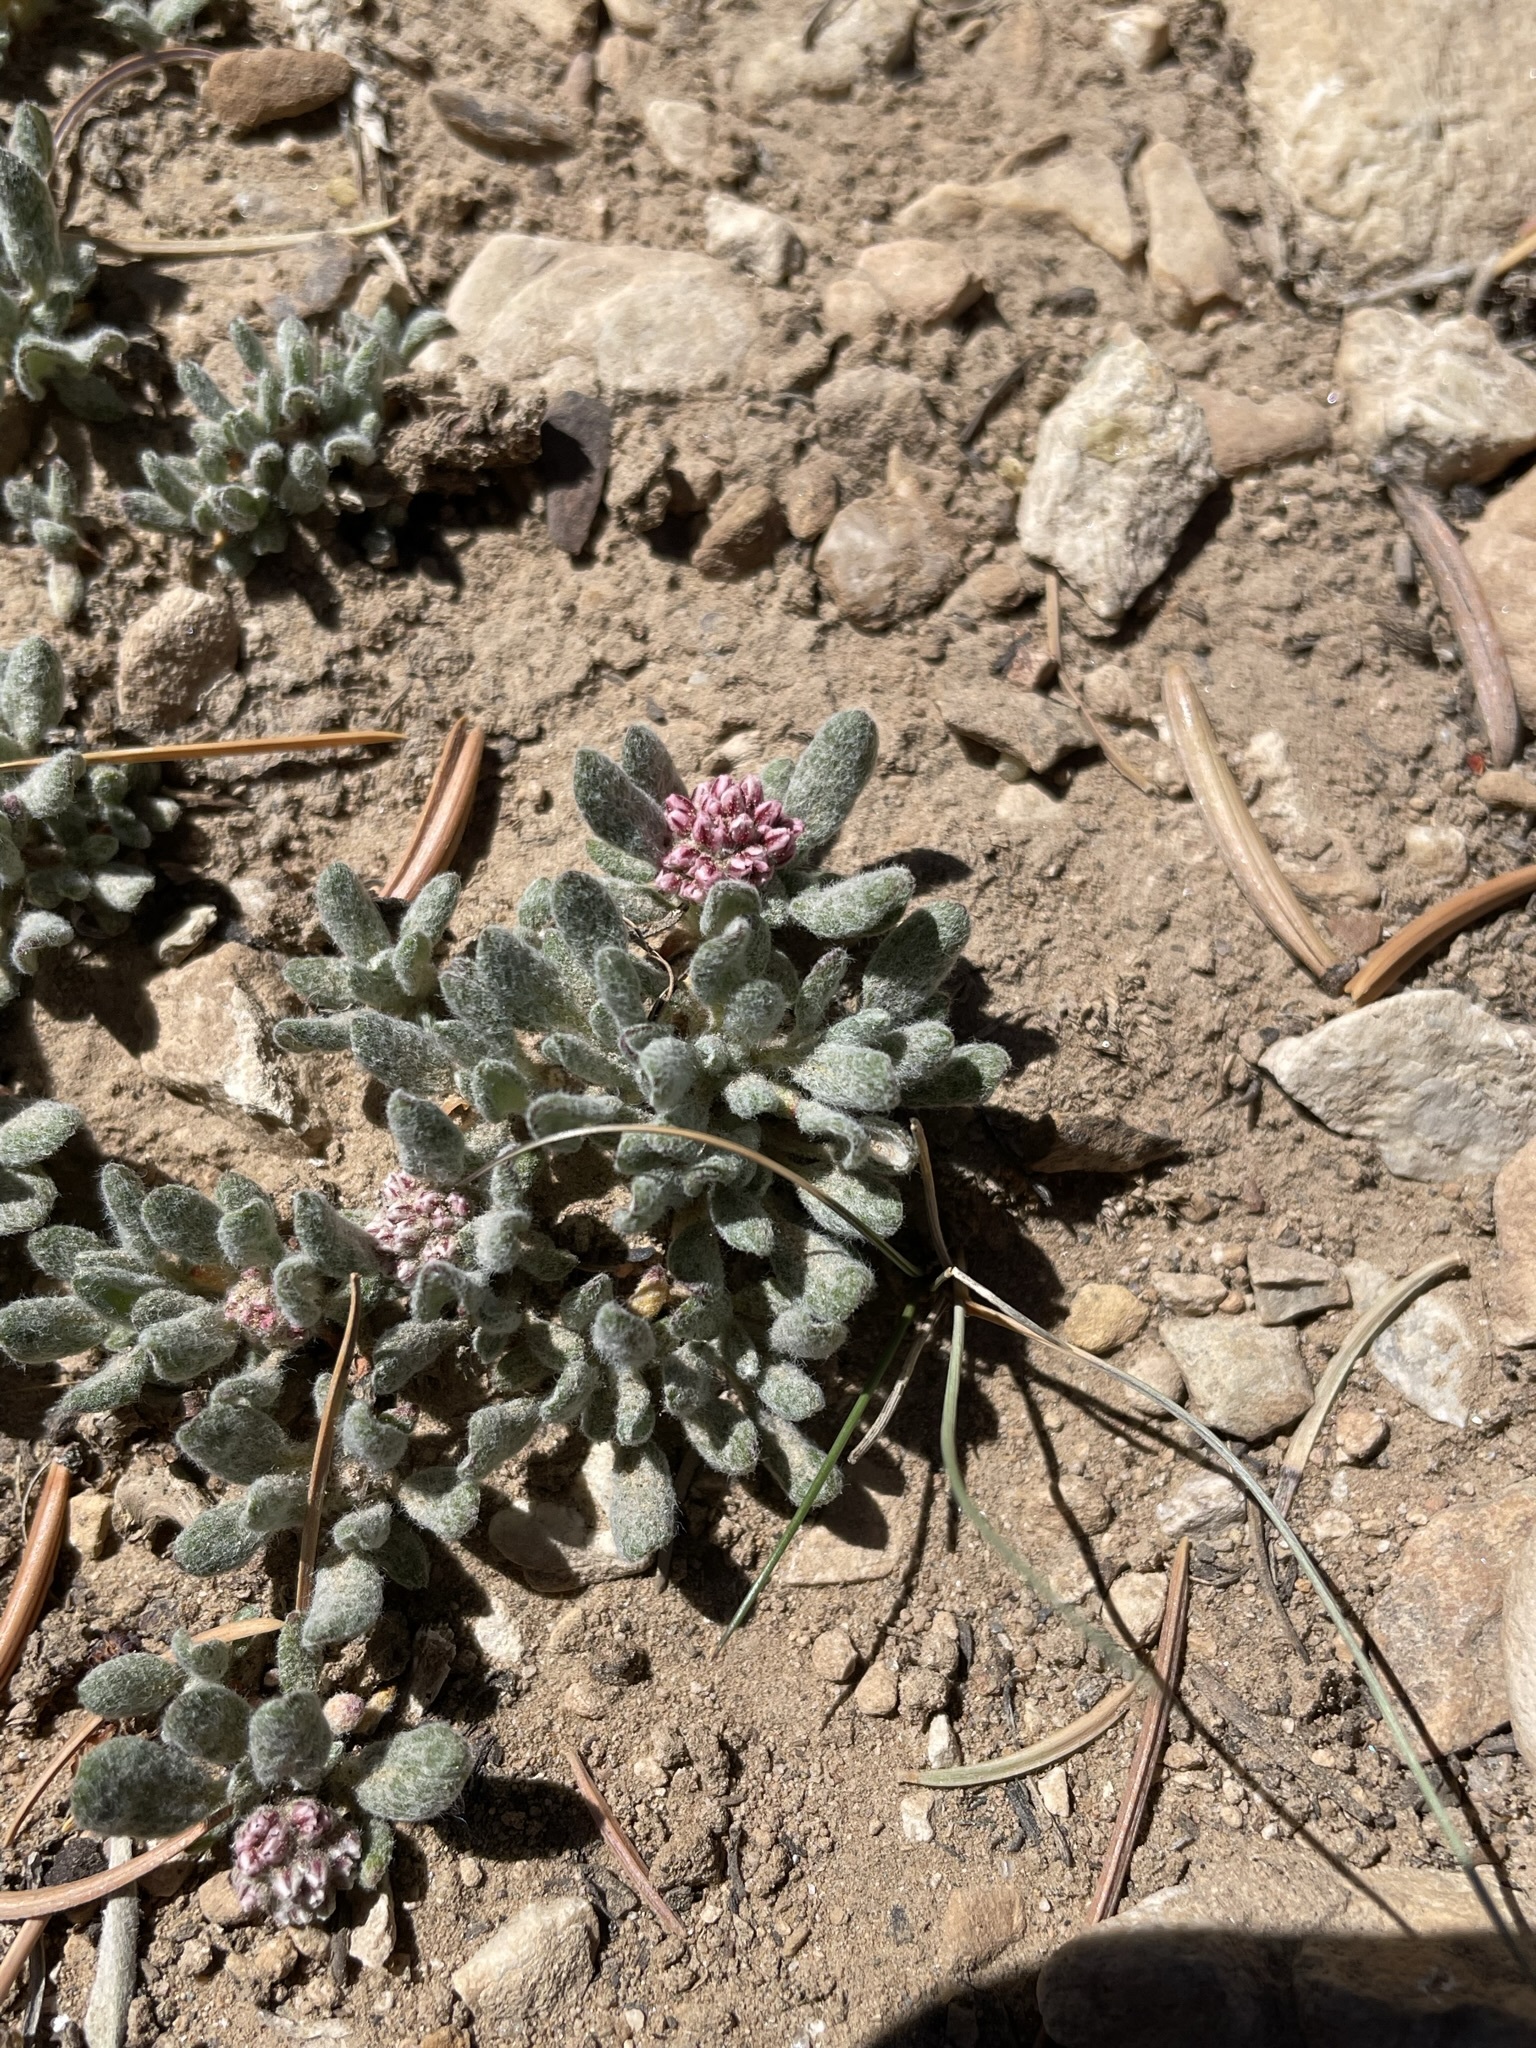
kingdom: Plantae
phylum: Tracheophyta
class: Magnoliopsida
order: Caryophyllales
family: Polygonaceae
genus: Eriogonum
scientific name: Eriogonum gracilipes
